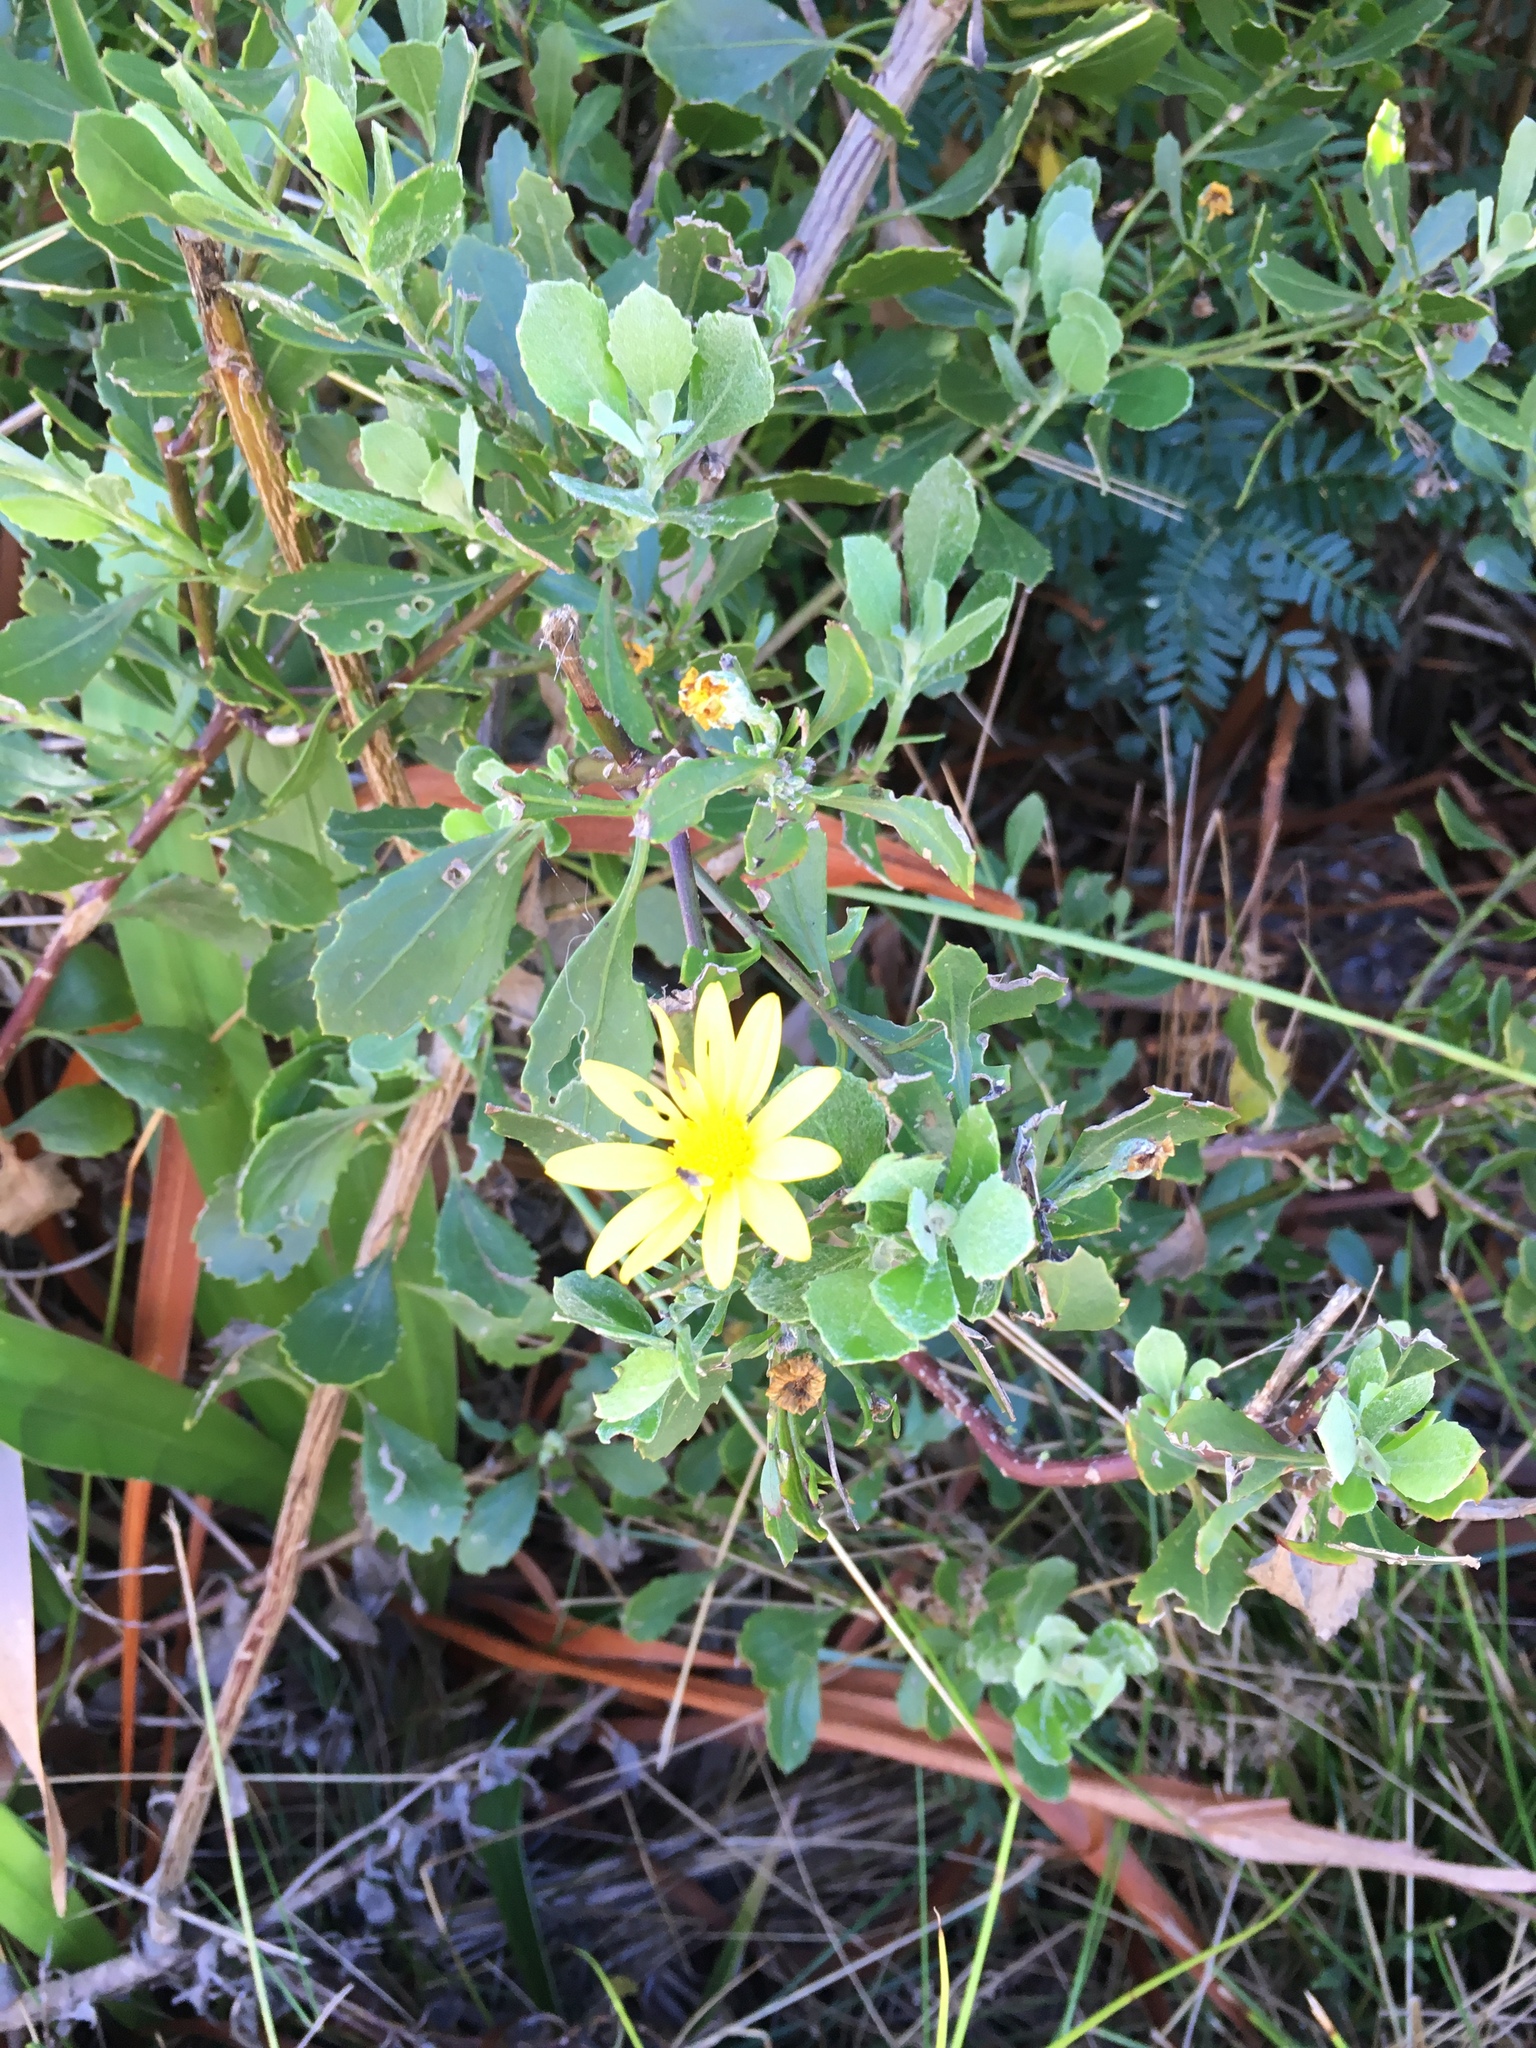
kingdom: Plantae
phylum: Tracheophyta
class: Magnoliopsida
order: Asterales
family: Asteraceae
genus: Osteospermum
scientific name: Osteospermum moniliferum
